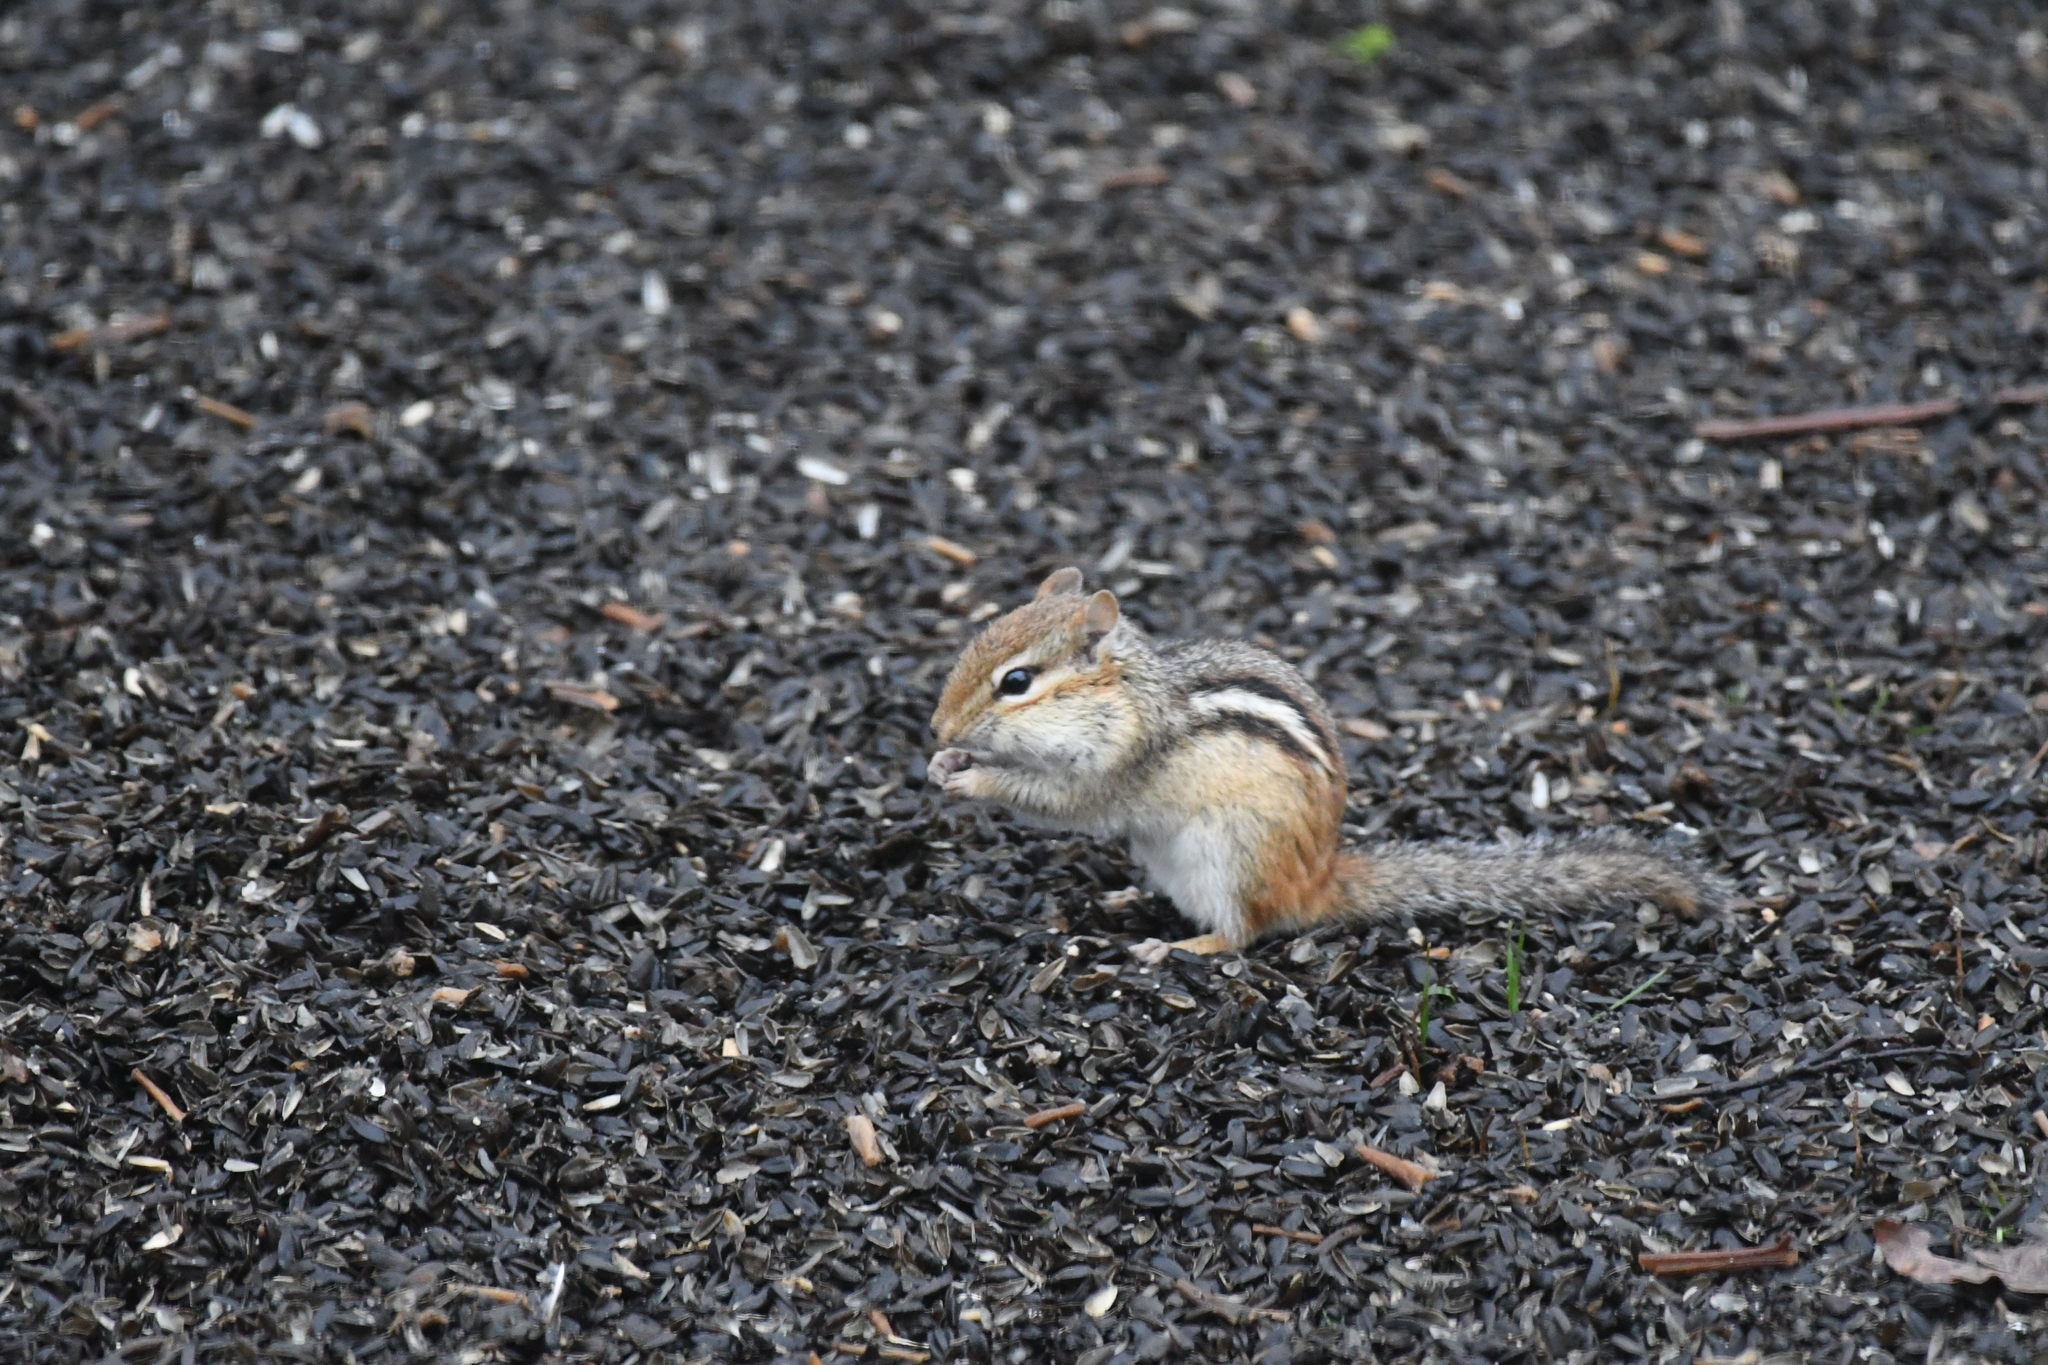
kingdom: Animalia
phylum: Chordata
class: Mammalia
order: Rodentia
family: Sciuridae
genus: Tamias
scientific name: Tamias striatus
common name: Eastern chipmunk
